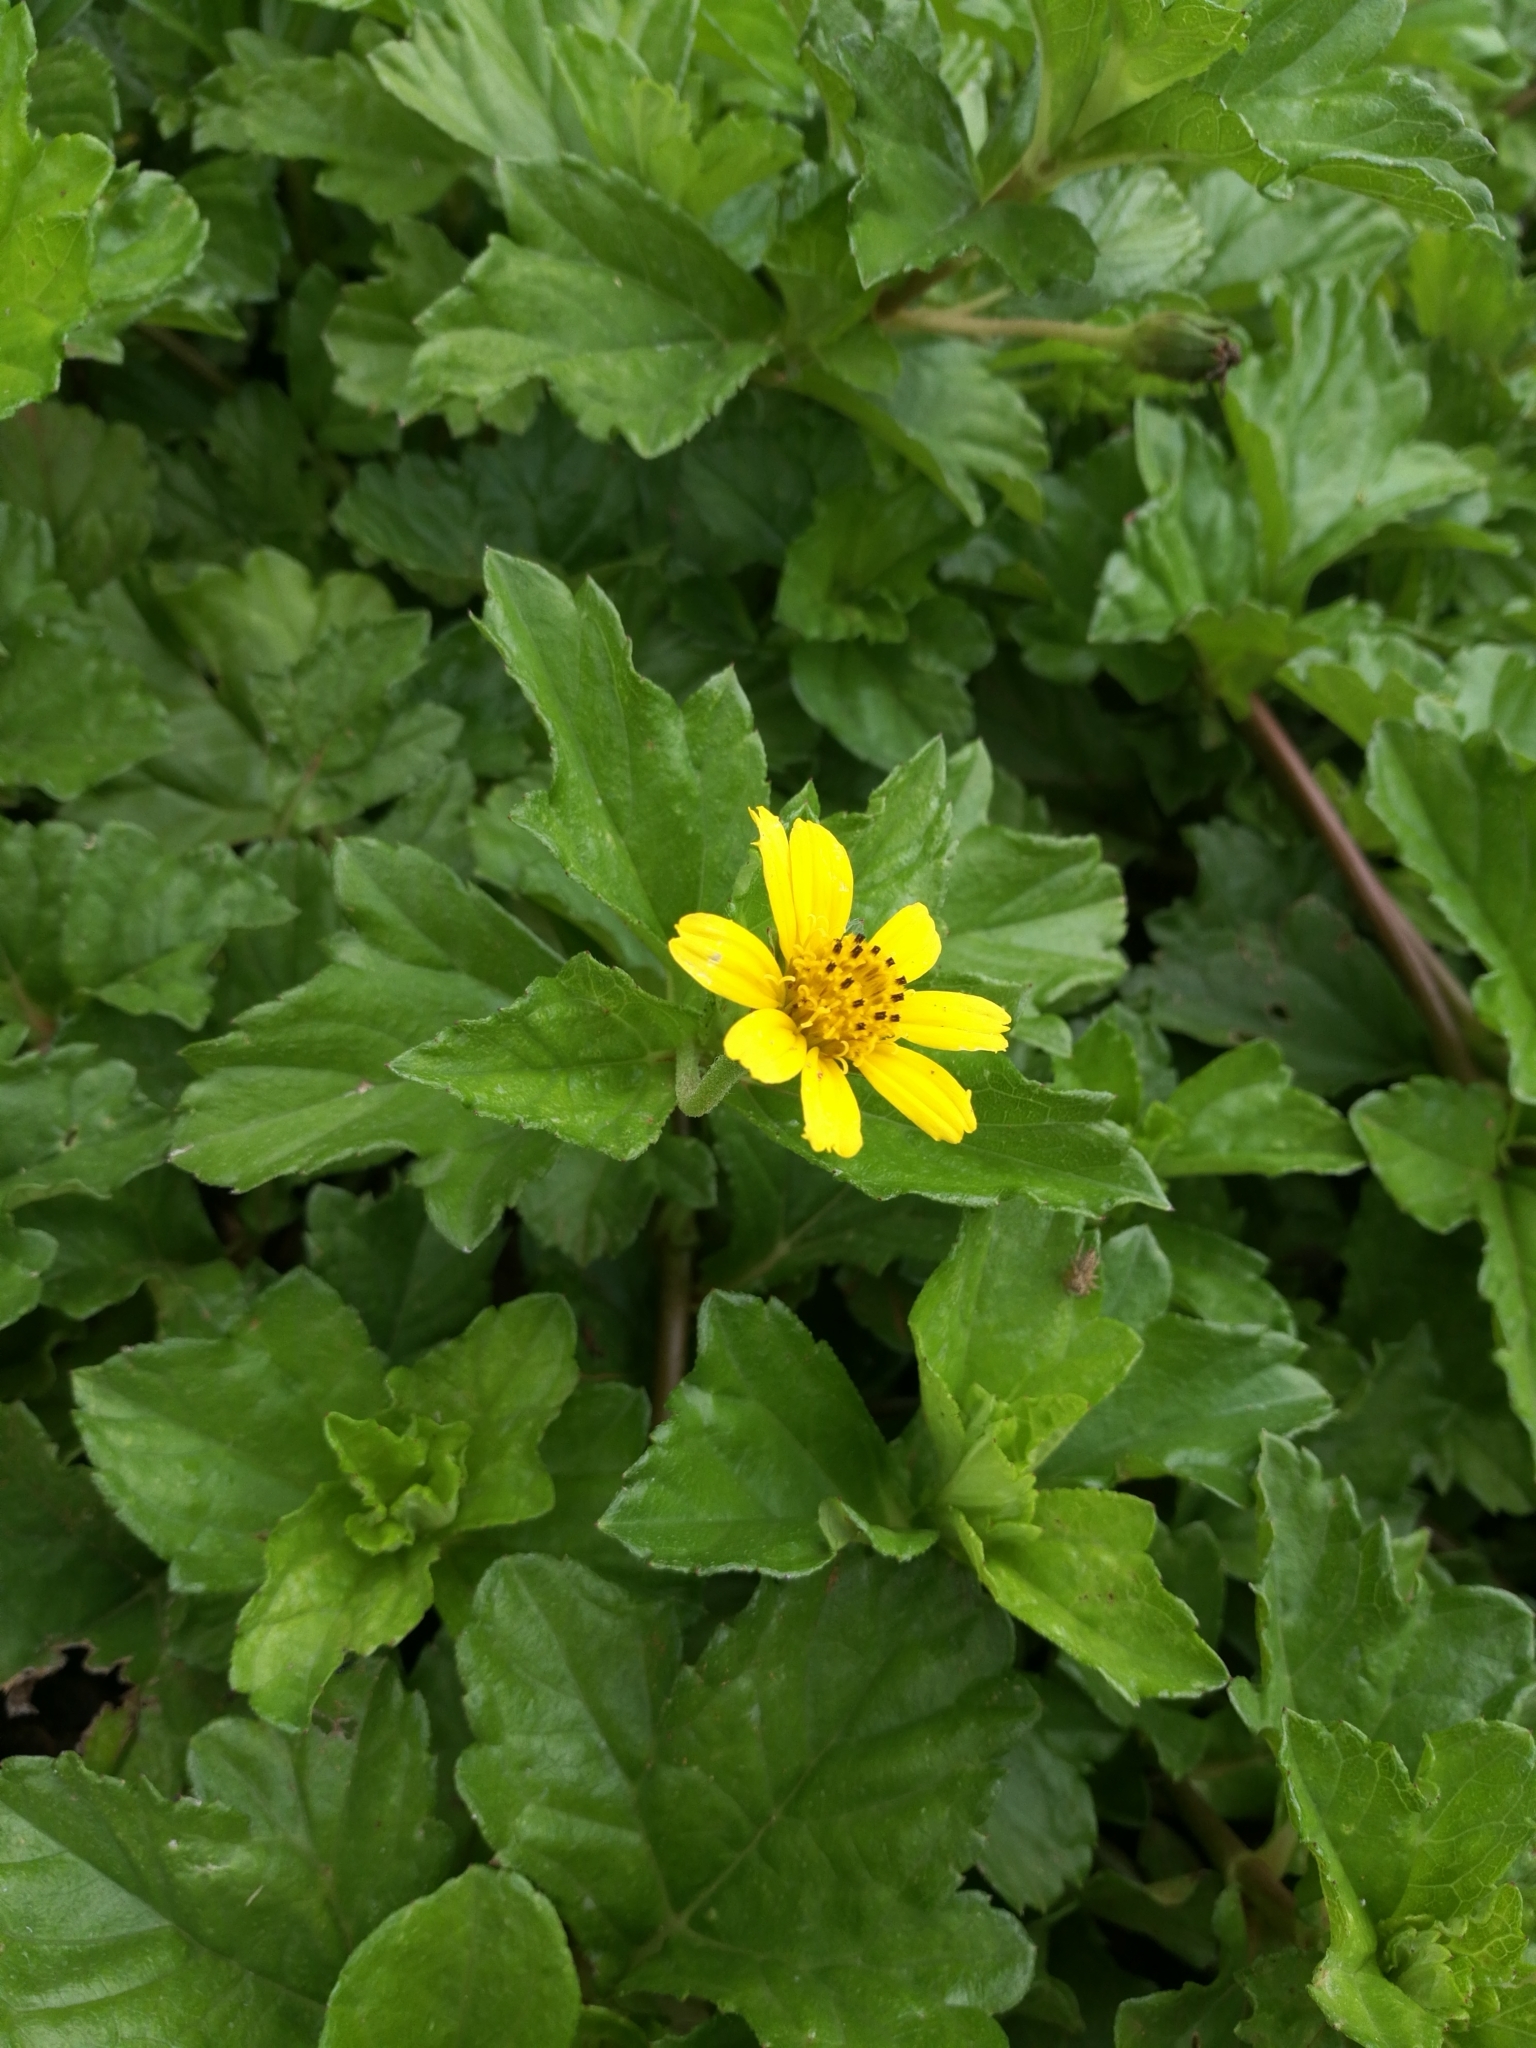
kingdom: Plantae
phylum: Tracheophyta
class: Magnoliopsida
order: Asterales
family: Asteraceae
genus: Sphagneticola
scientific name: Sphagneticola trilobata
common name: Bay biscayne creeping-oxeye
